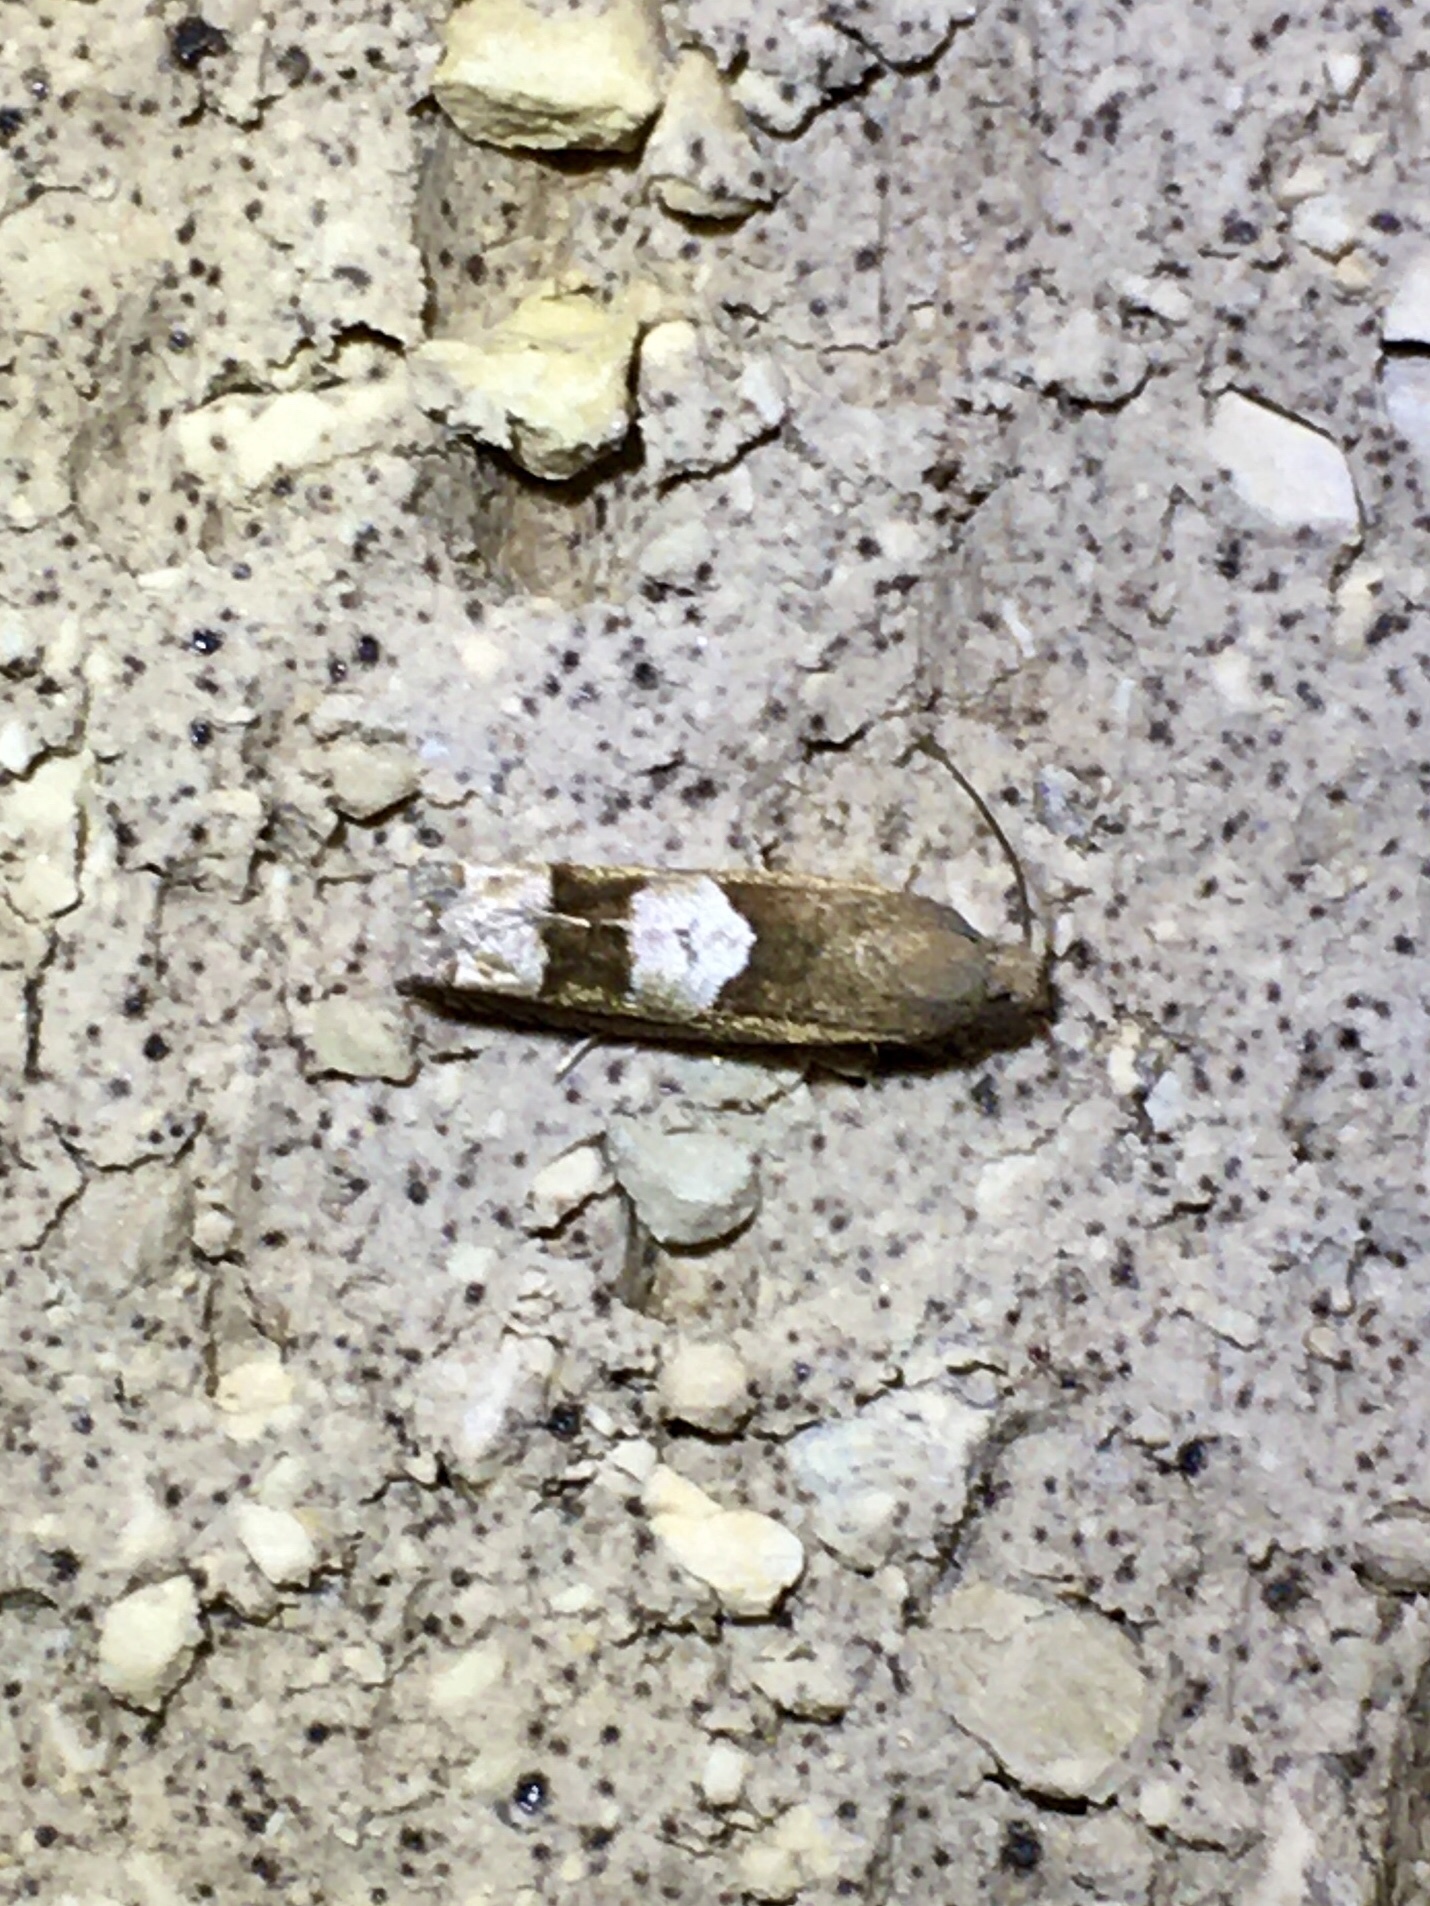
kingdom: Animalia
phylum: Arthropoda
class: Insecta
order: Lepidoptera
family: Tortricidae
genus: Epiblema
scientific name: Epiblema boxcana
